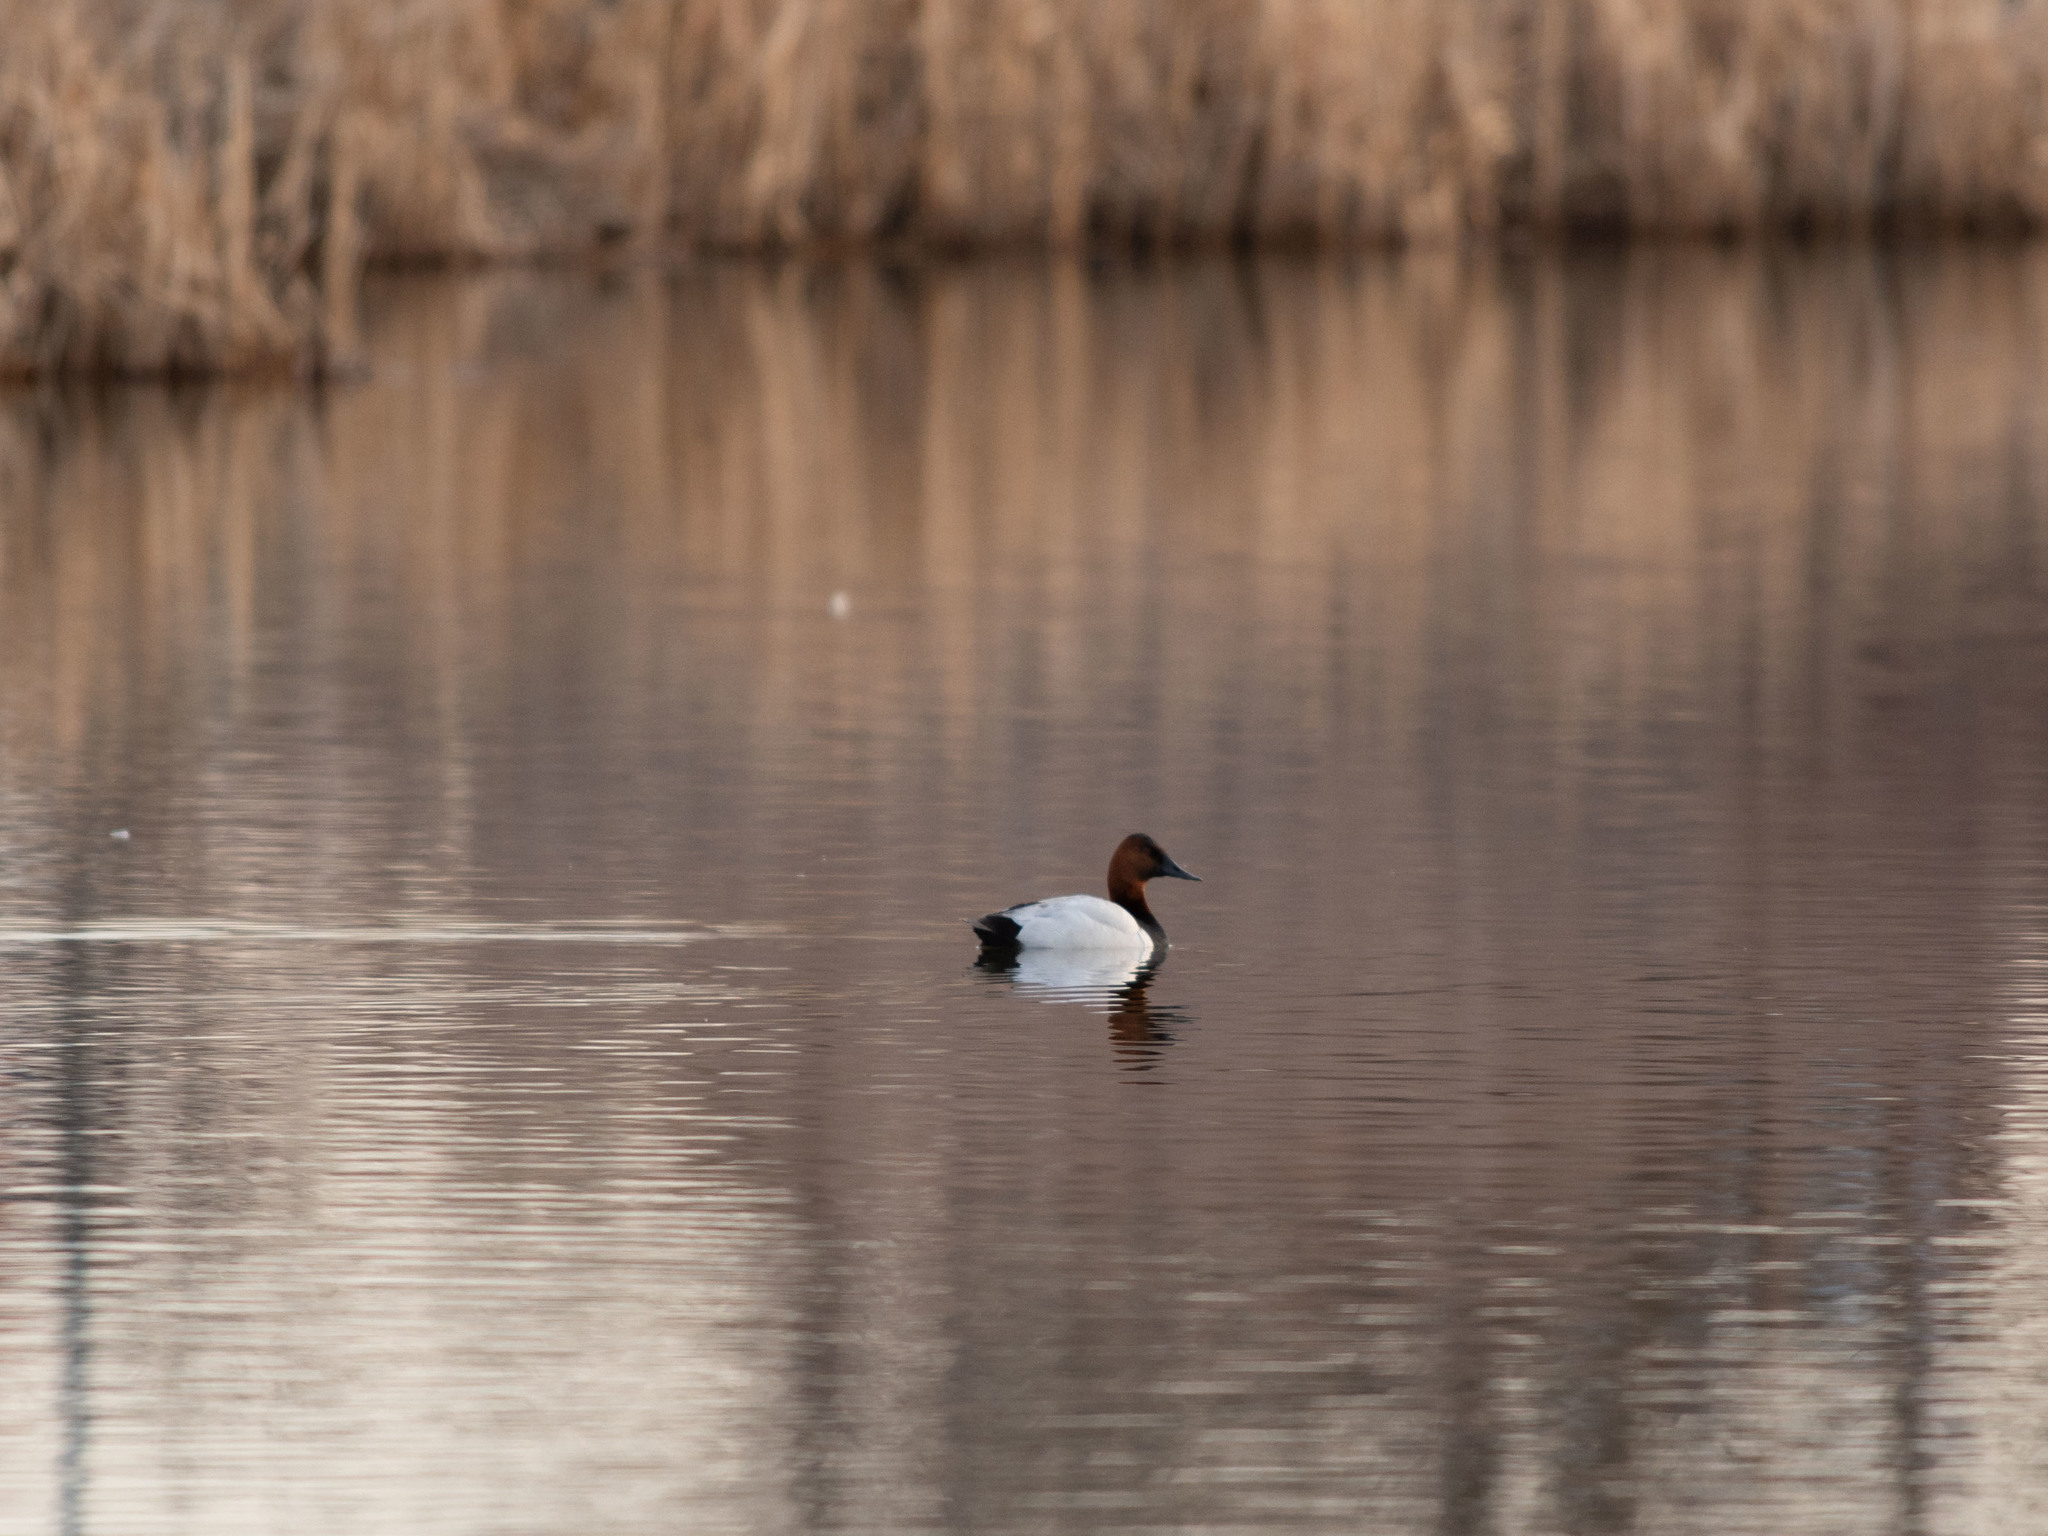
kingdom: Animalia
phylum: Chordata
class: Aves
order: Anseriformes
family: Anatidae
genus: Aythya
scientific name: Aythya valisineria
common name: Canvasback
